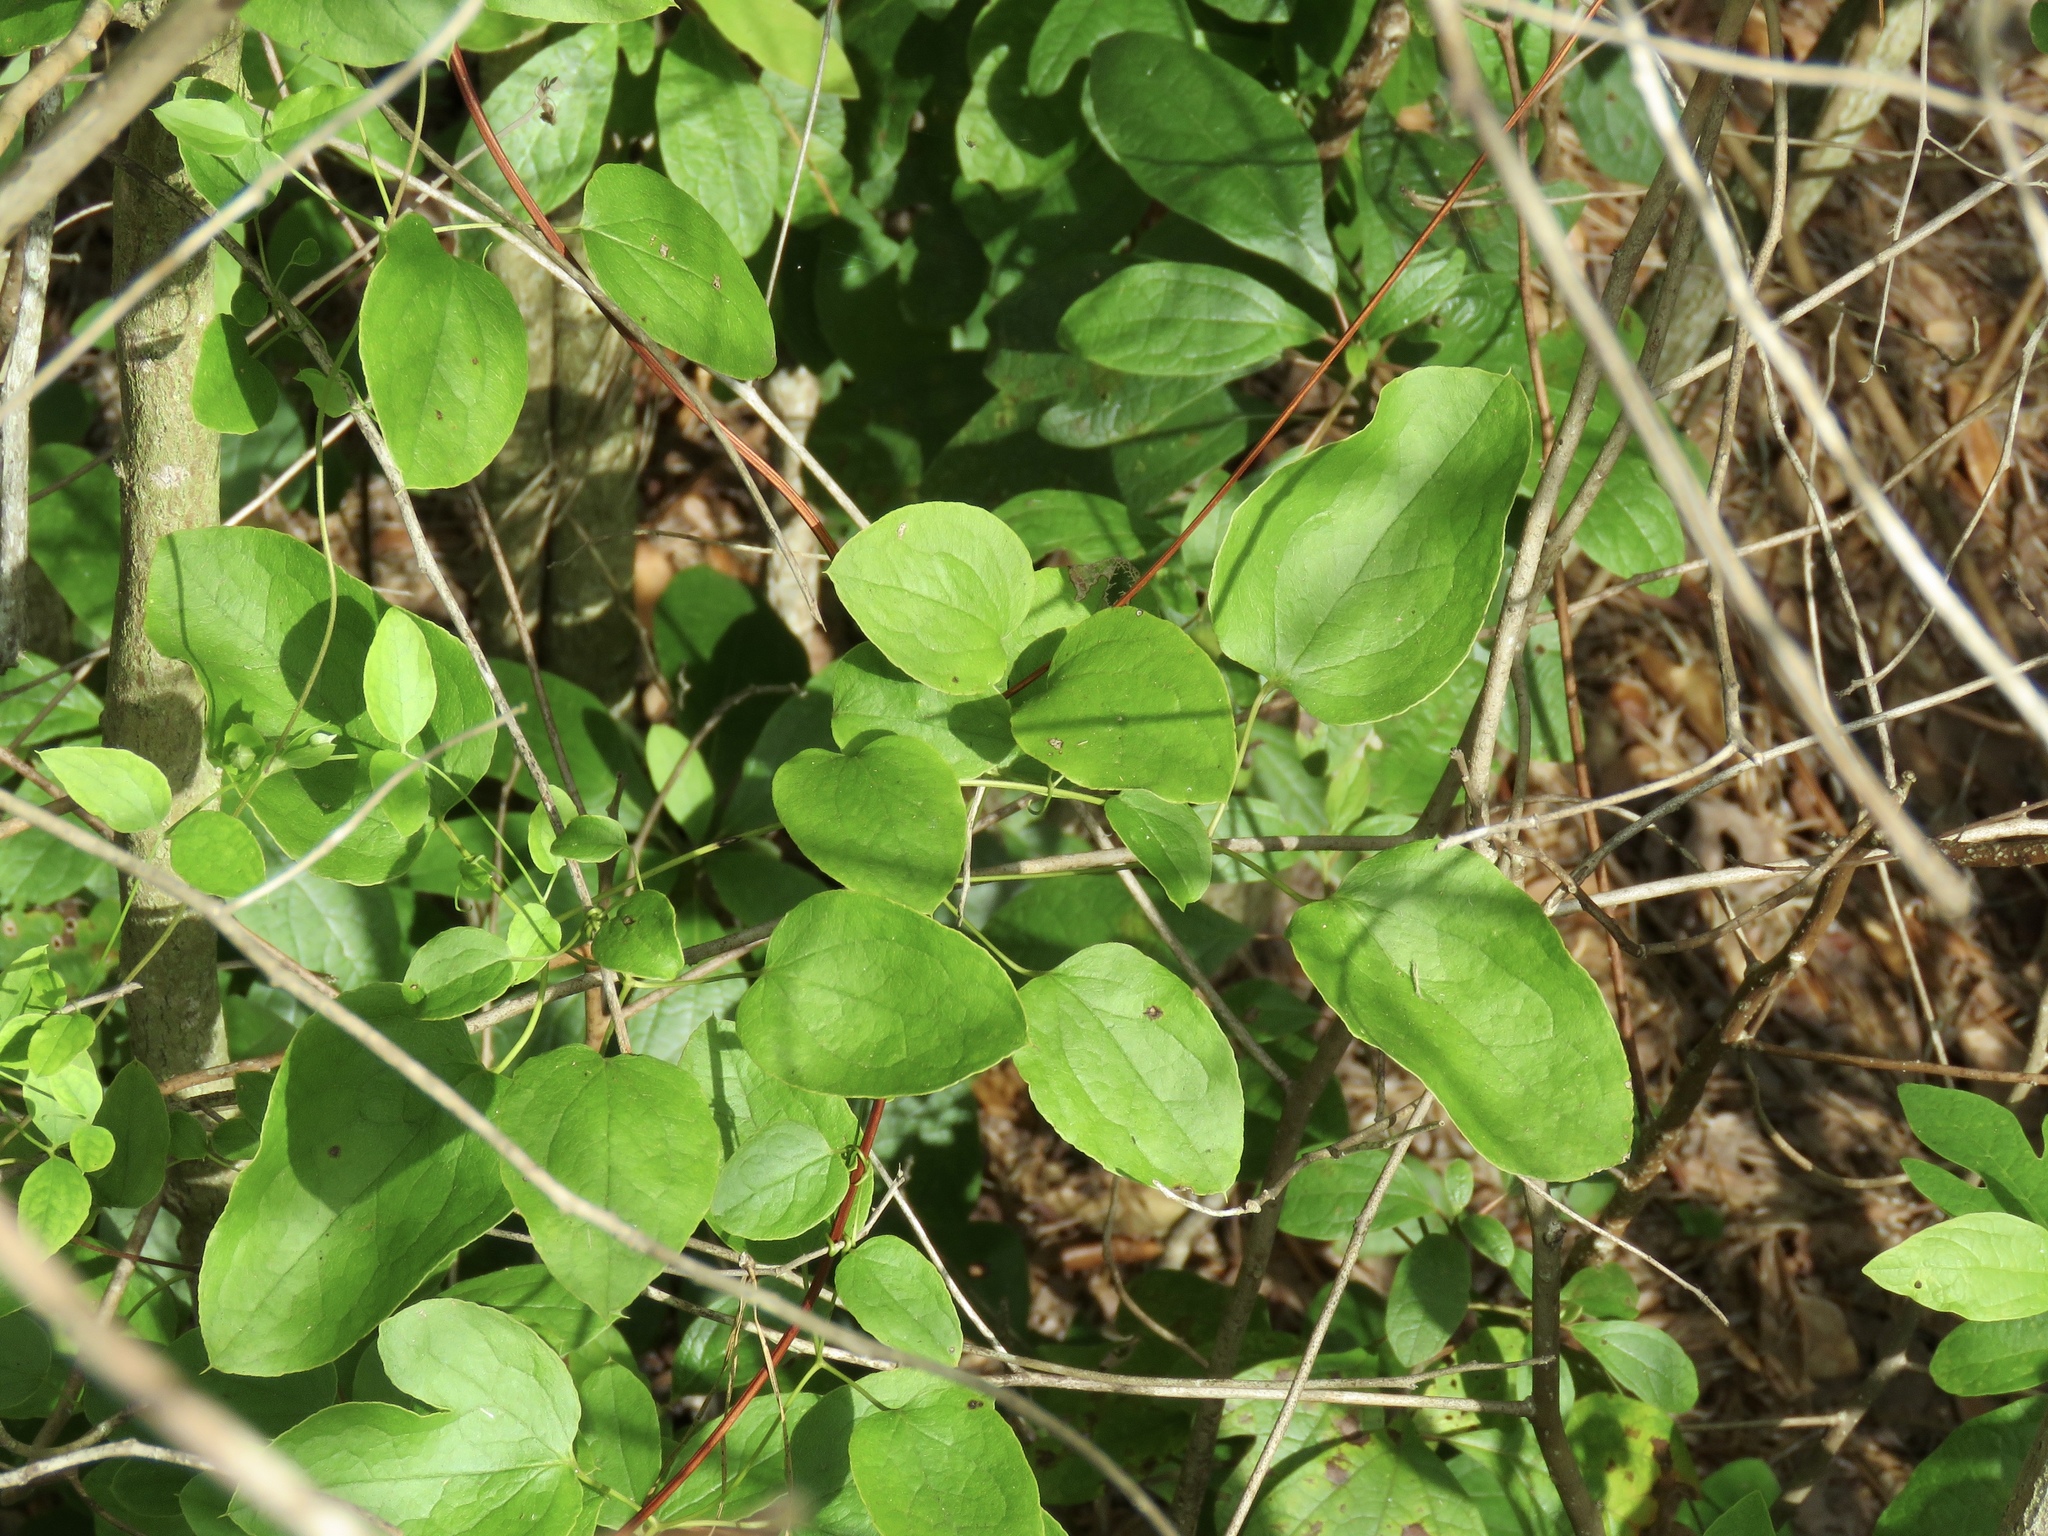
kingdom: Plantae
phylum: Tracheophyta
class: Magnoliopsida
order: Ranunculales
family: Ranunculaceae
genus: Clematis
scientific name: Clematis reticulata
